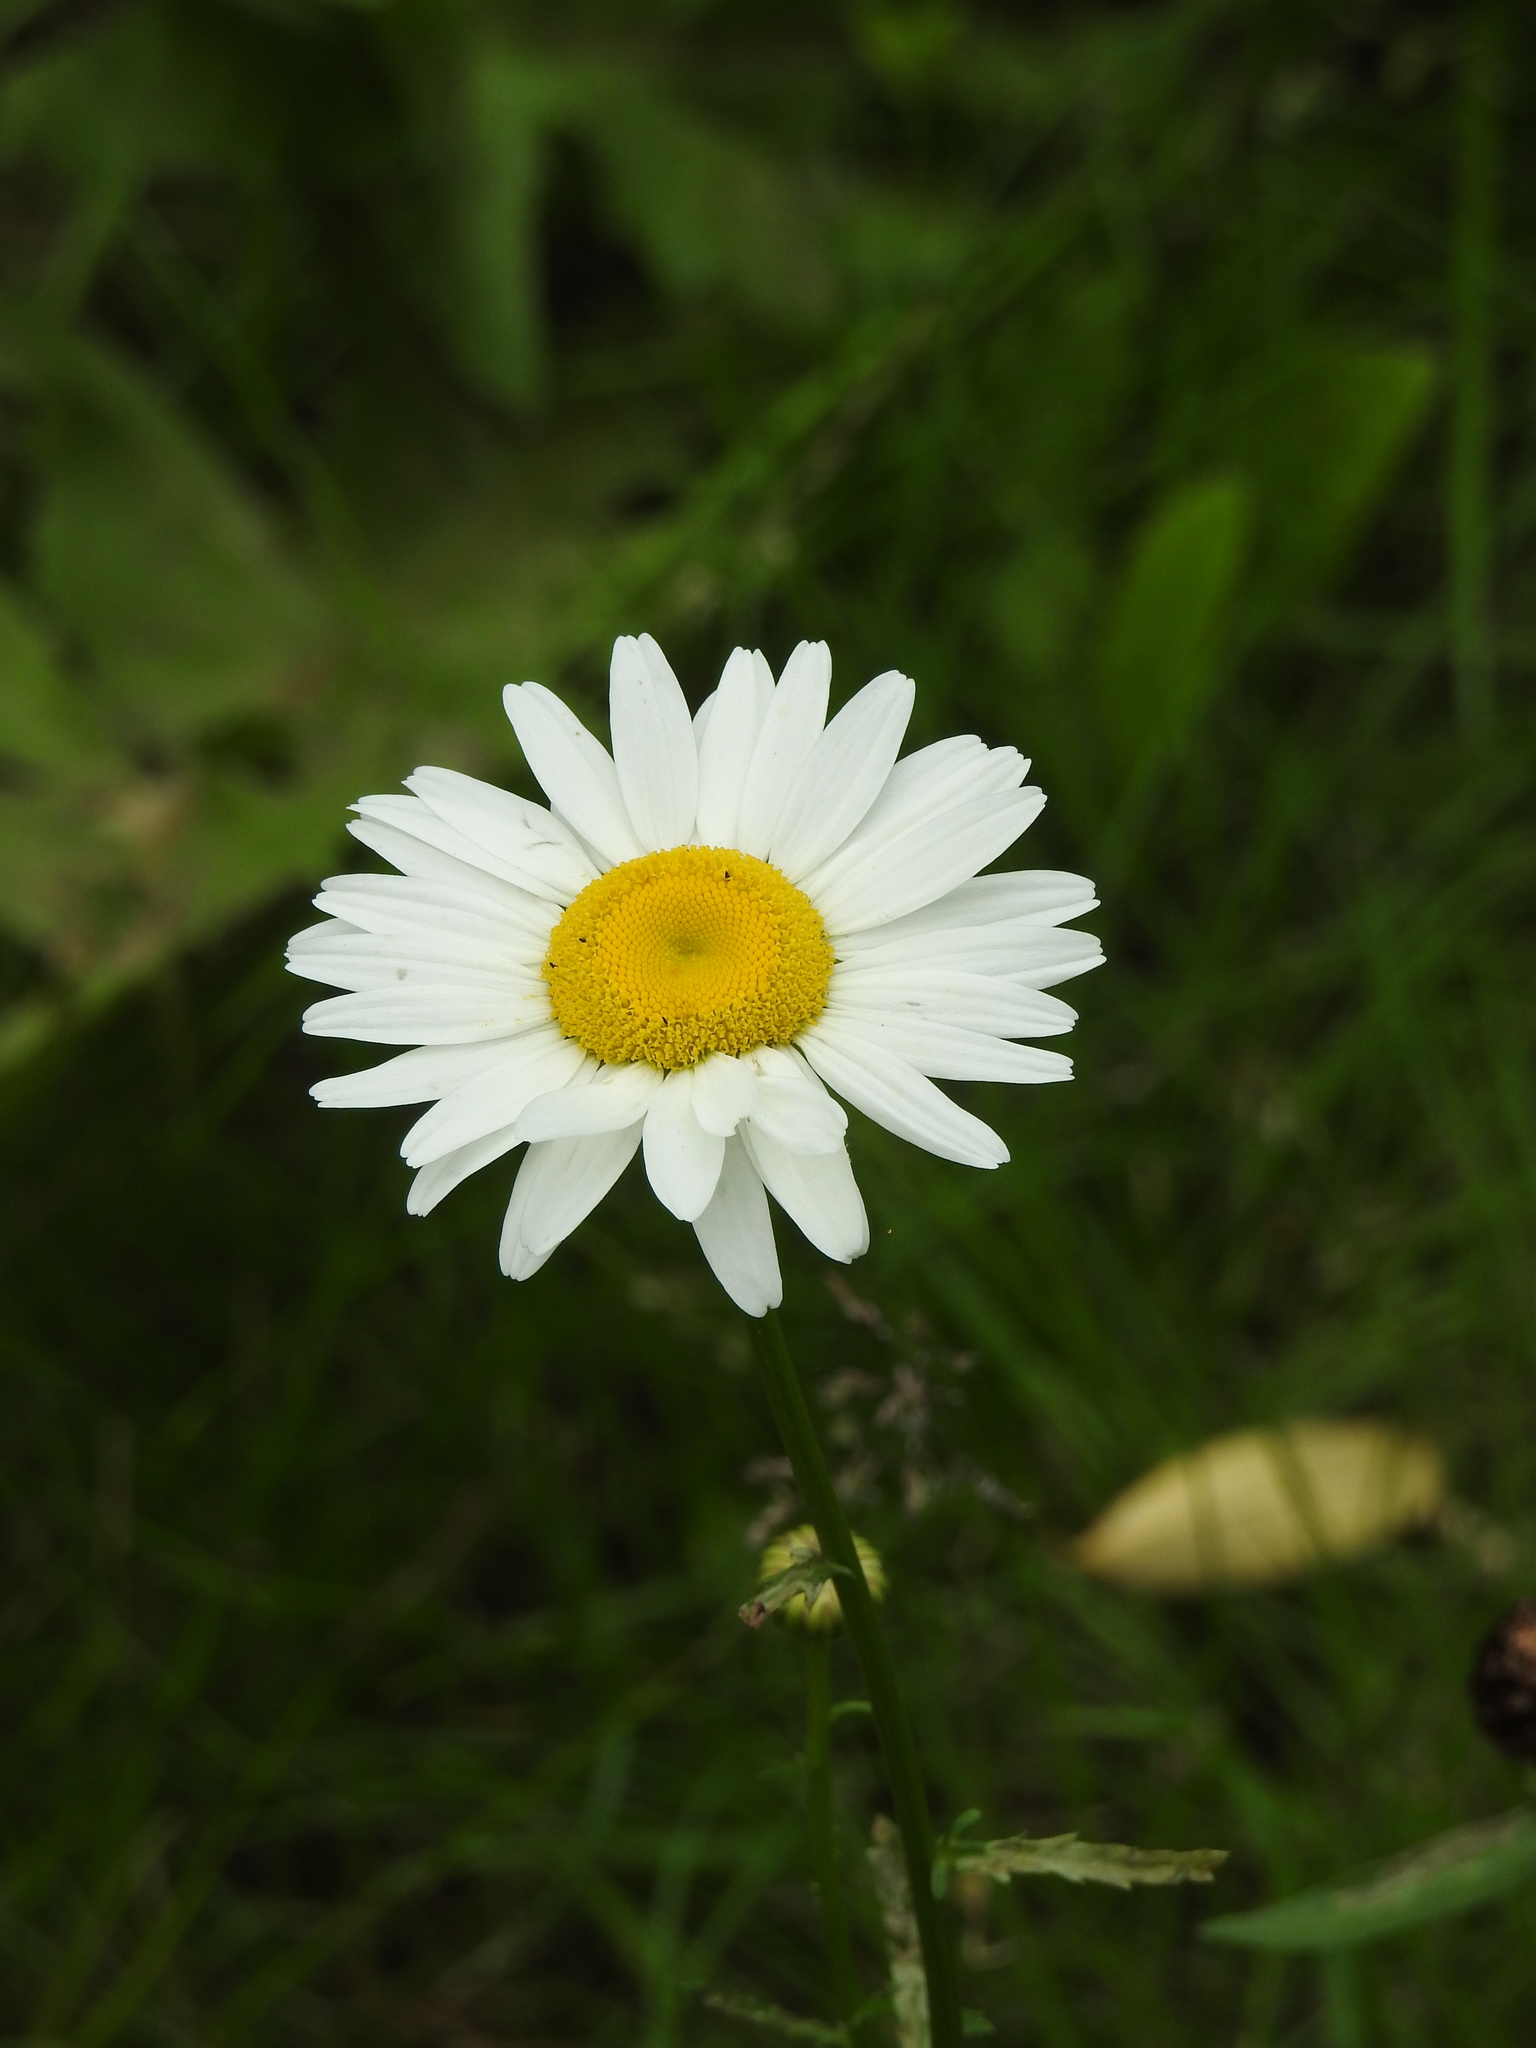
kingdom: Plantae
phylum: Tracheophyta
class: Magnoliopsida
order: Asterales
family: Asteraceae
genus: Leucanthemum
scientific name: Leucanthemum vulgare
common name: Oxeye daisy
